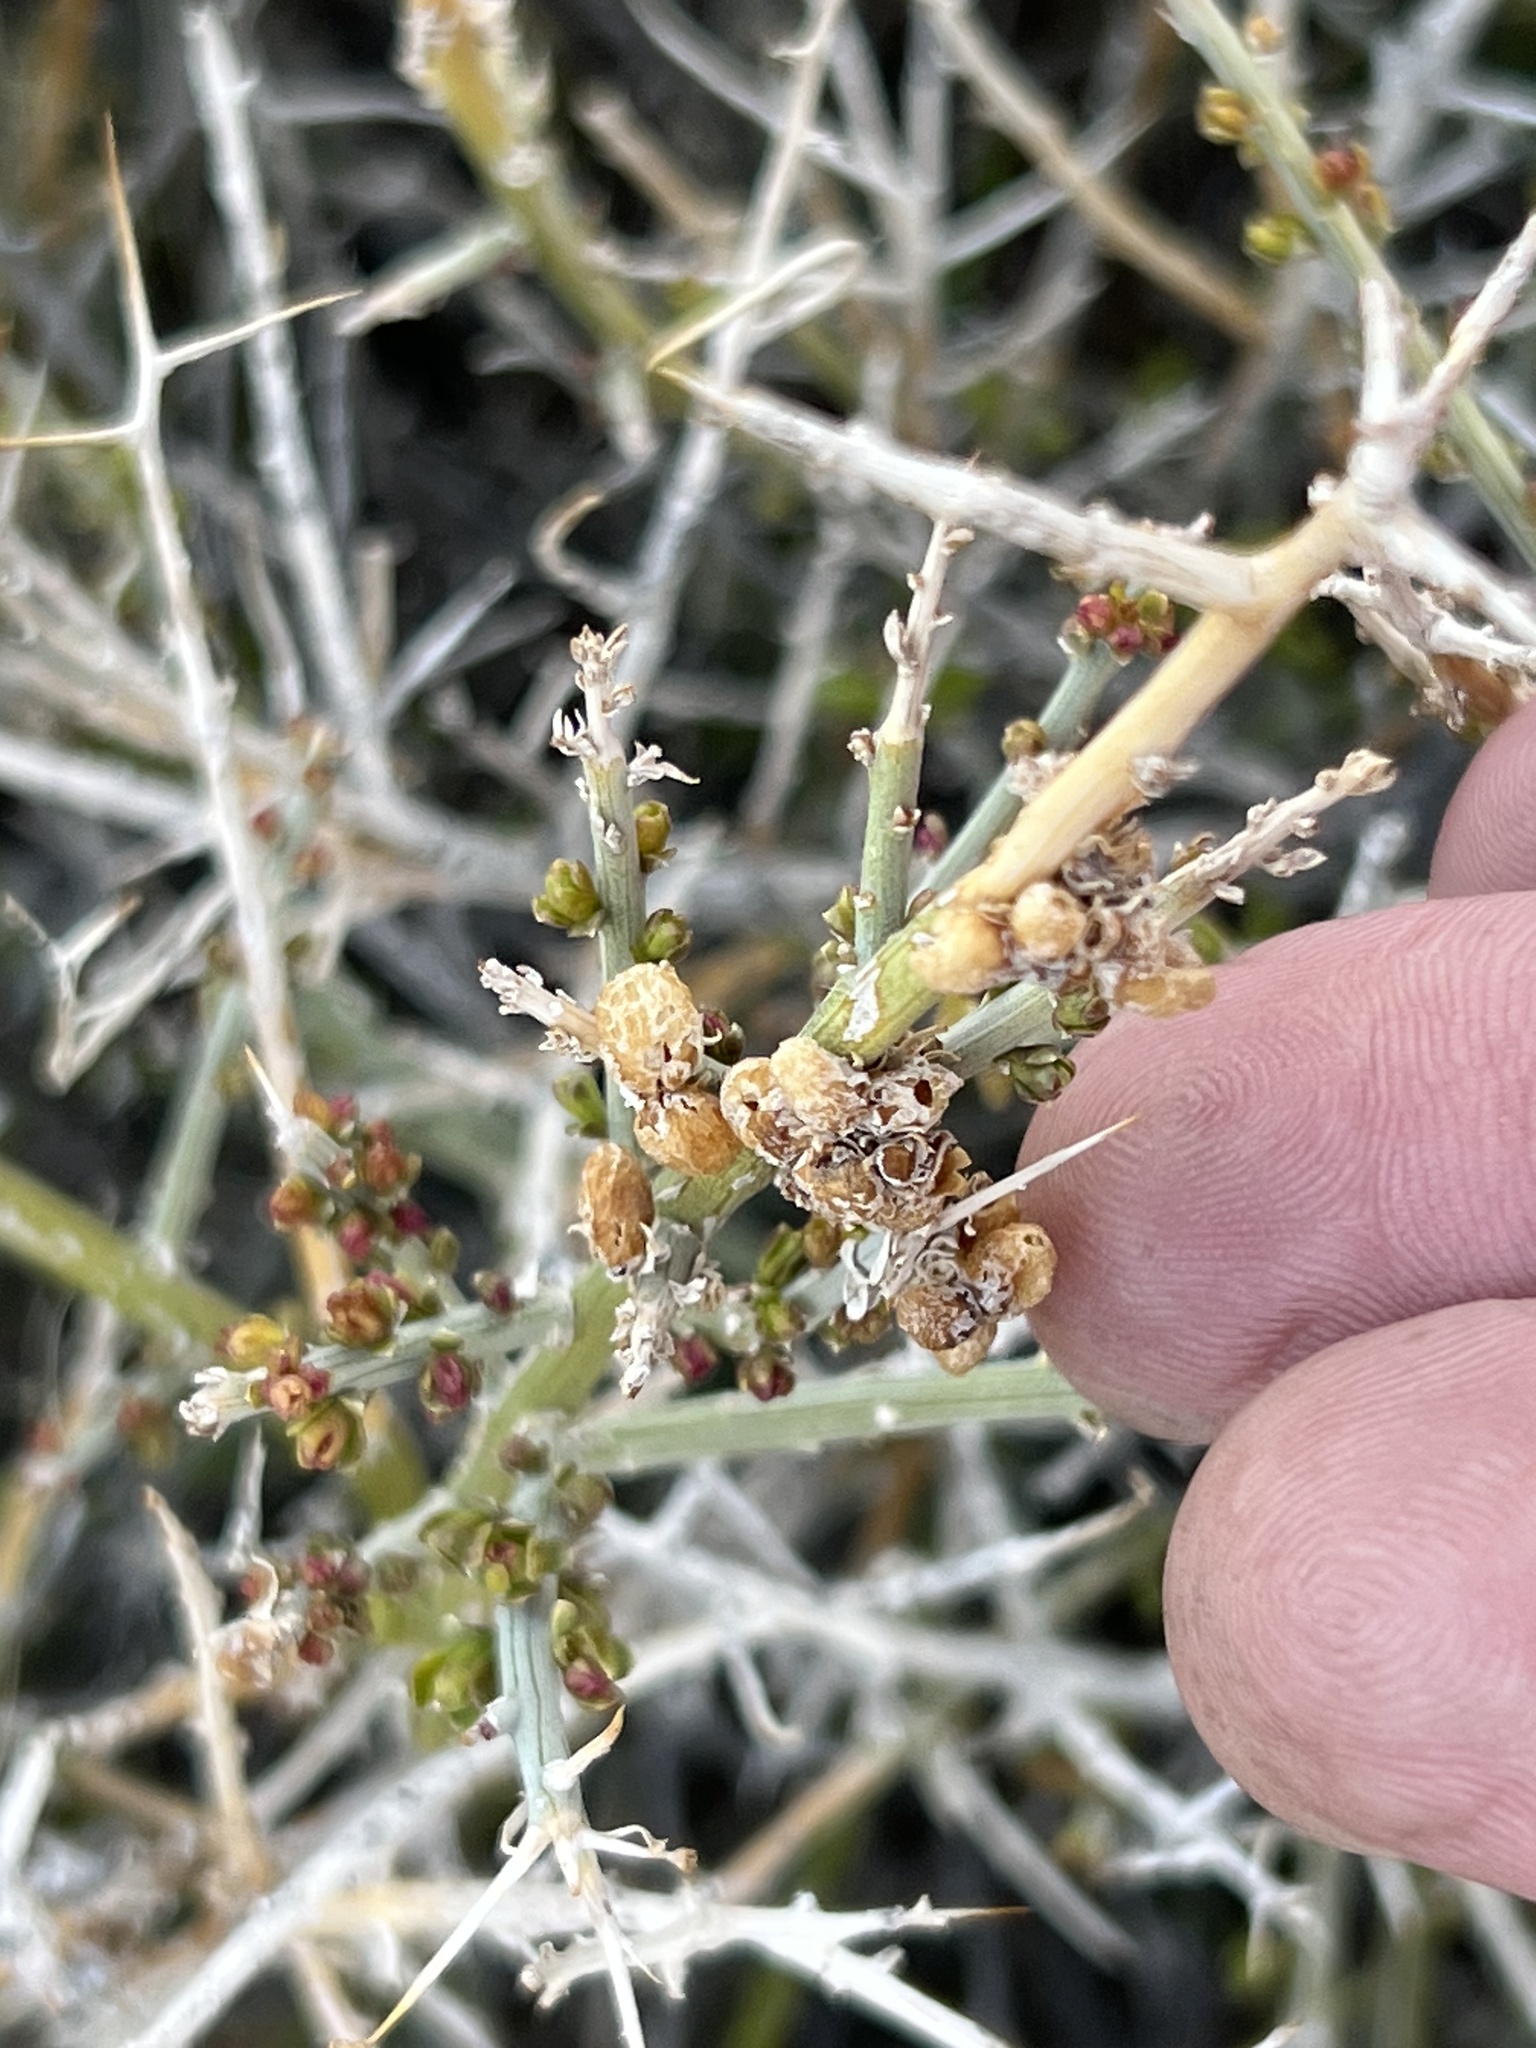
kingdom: Plantae
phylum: Tracheophyta
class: Magnoliopsida
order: Lamiales
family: Oleaceae
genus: Menodora
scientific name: Menodora spinescens
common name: Spiny menodora
